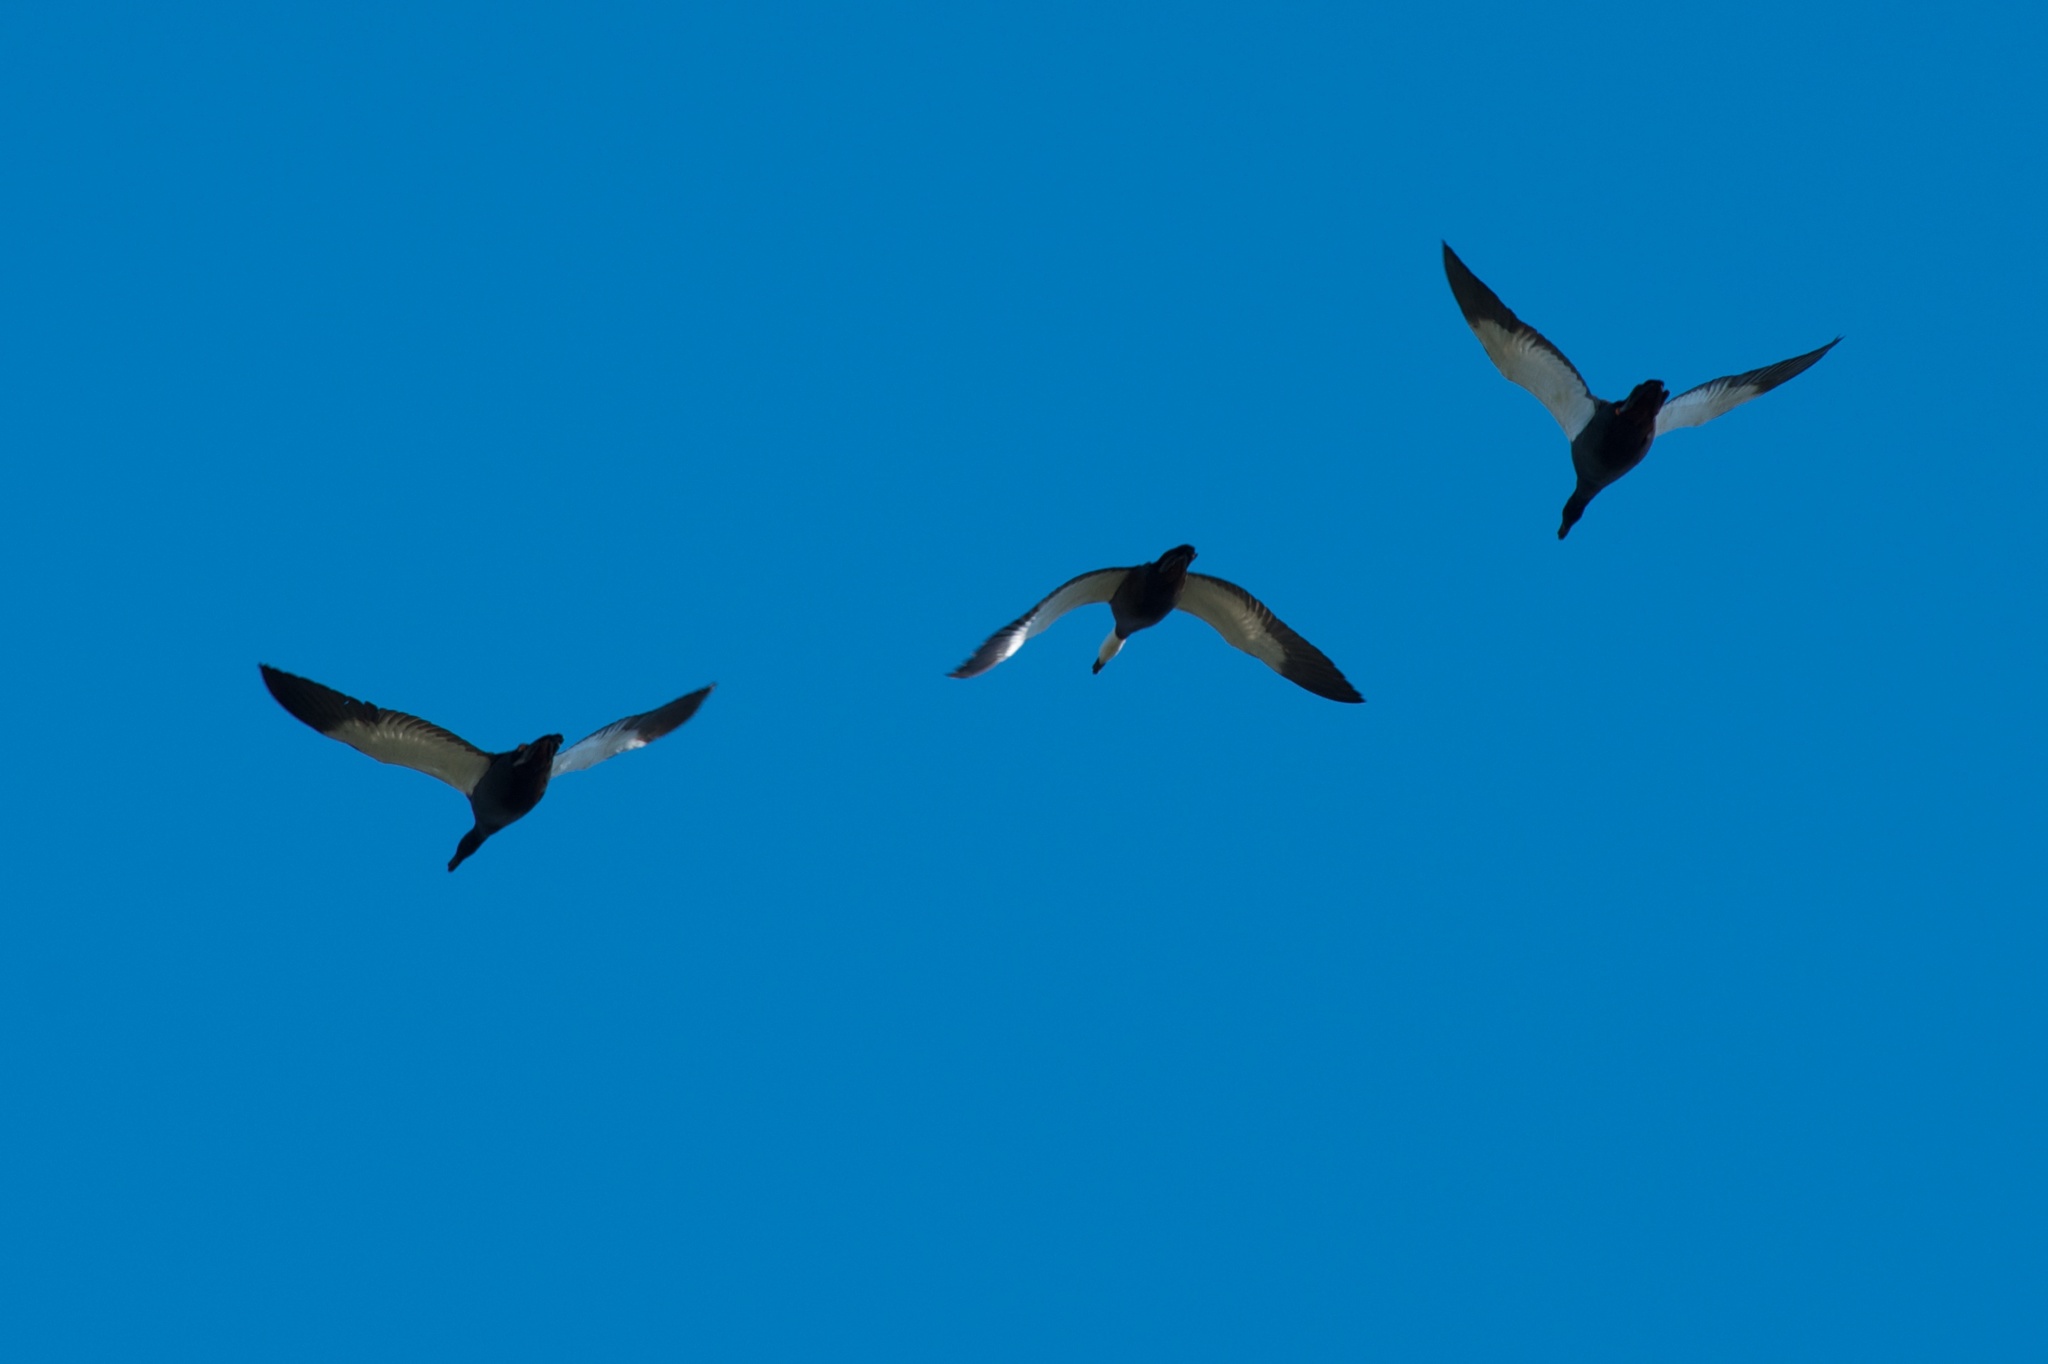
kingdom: Animalia
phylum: Chordata
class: Aves
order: Anseriformes
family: Anatidae
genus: Tadorna
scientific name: Tadorna variegata
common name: Paradise shelduck
